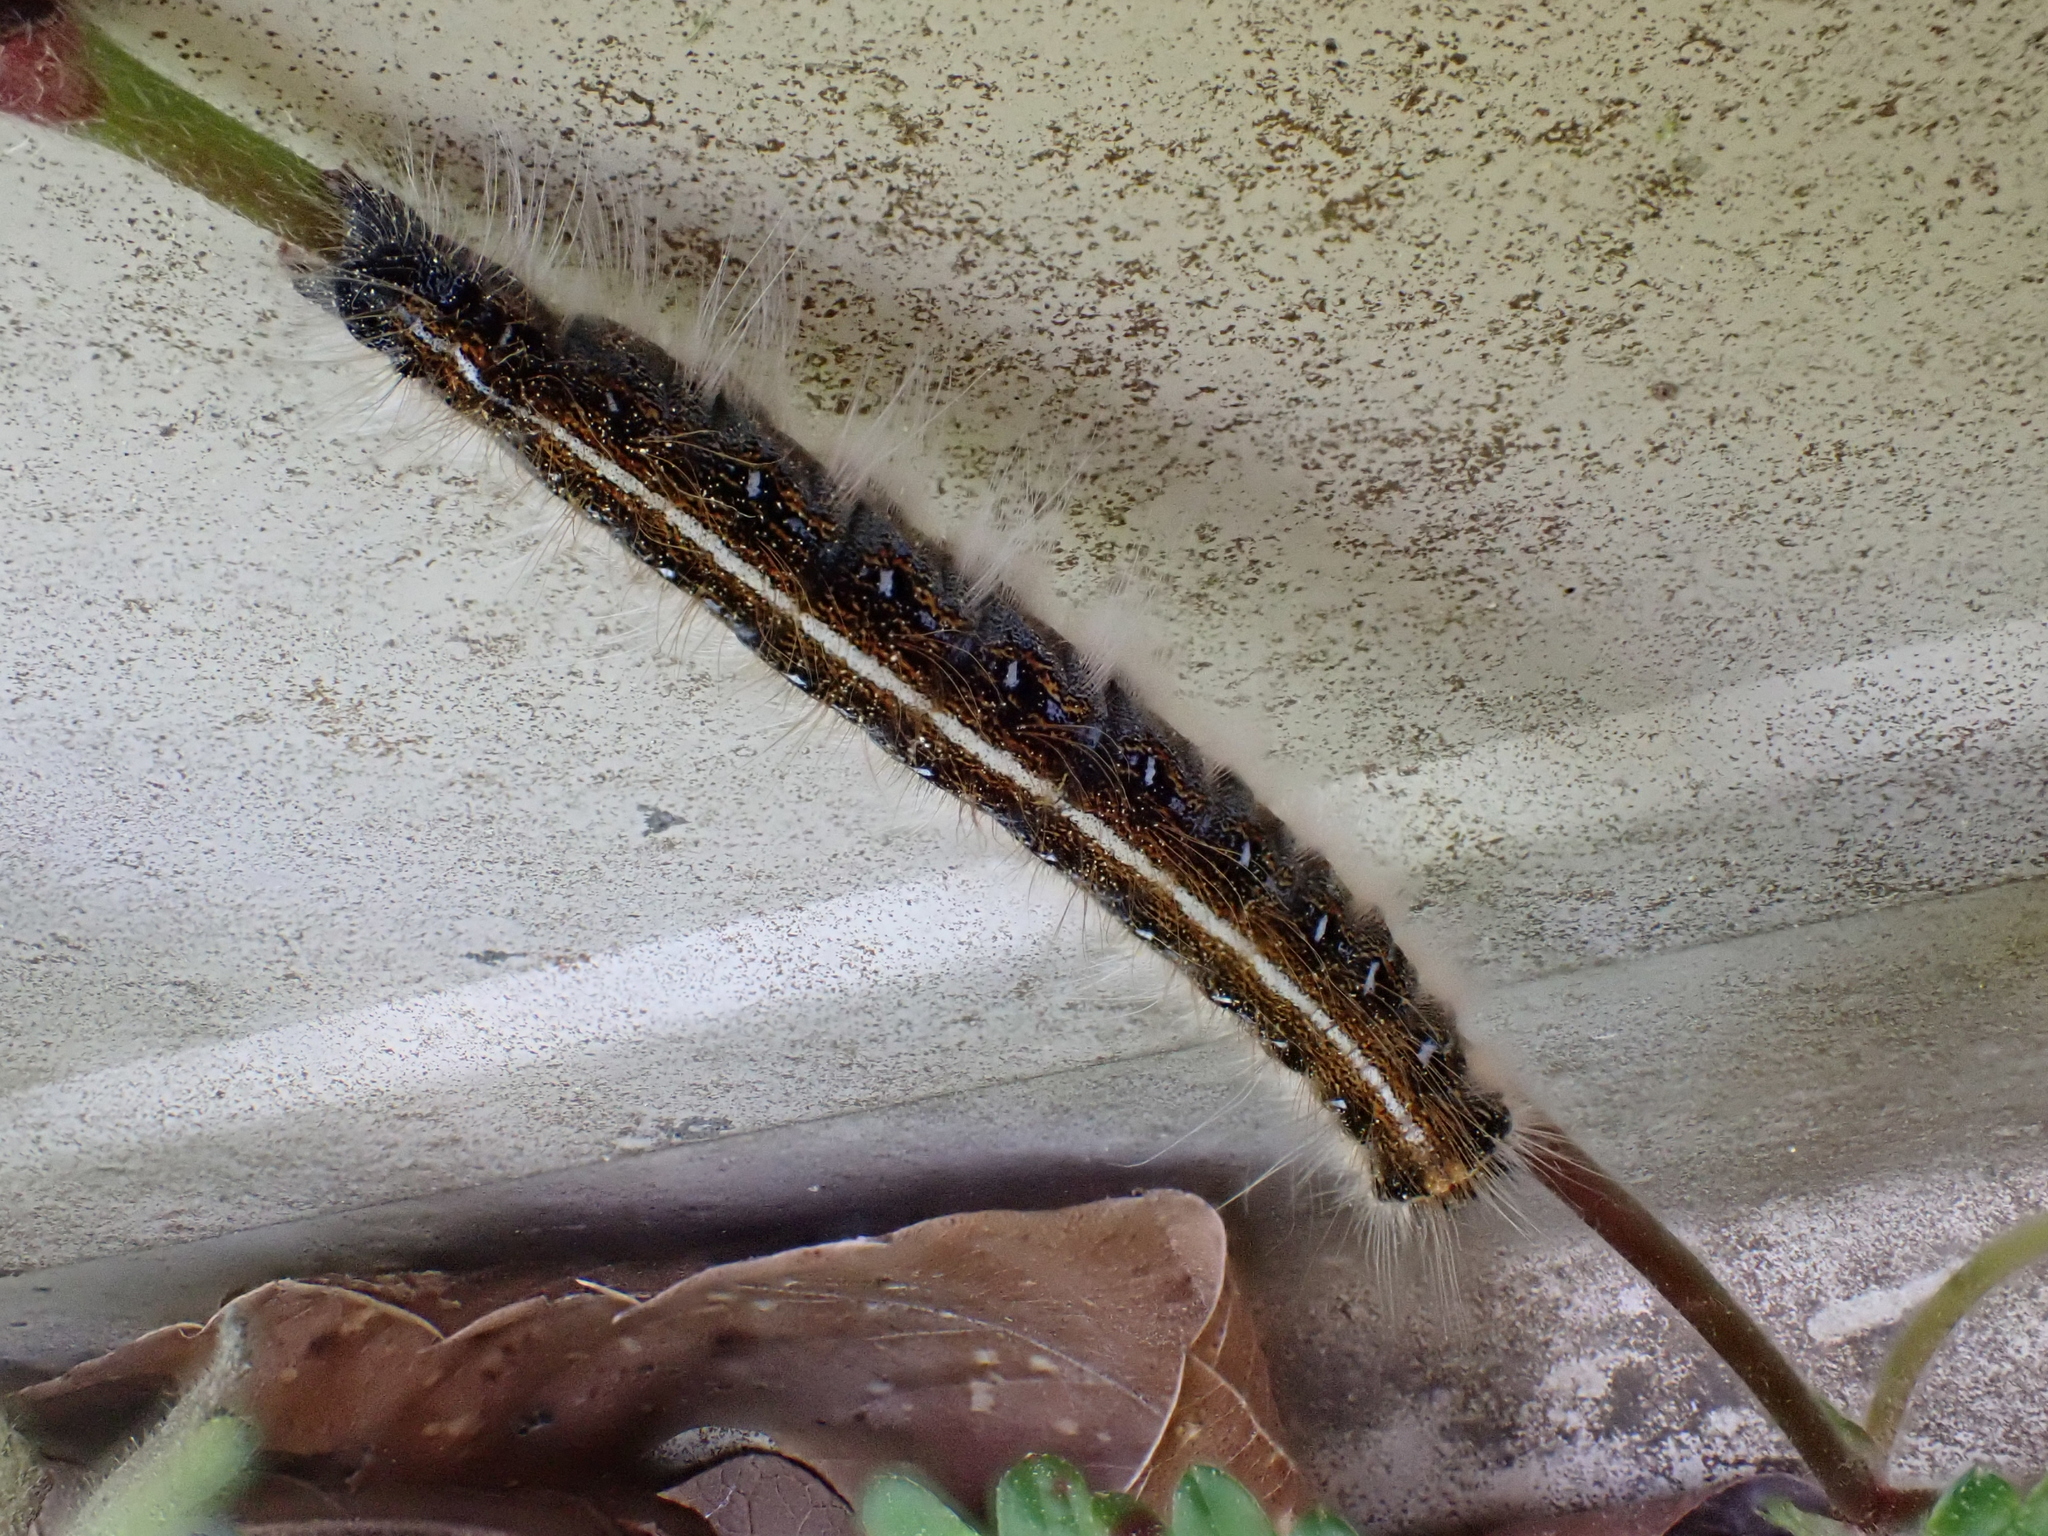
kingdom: Animalia
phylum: Arthropoda
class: Insecta
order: Lepidoptera
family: Lasiocampidae
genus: Malacosoma
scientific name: Malacosoma americana
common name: Eastern tent caterpillar moth
